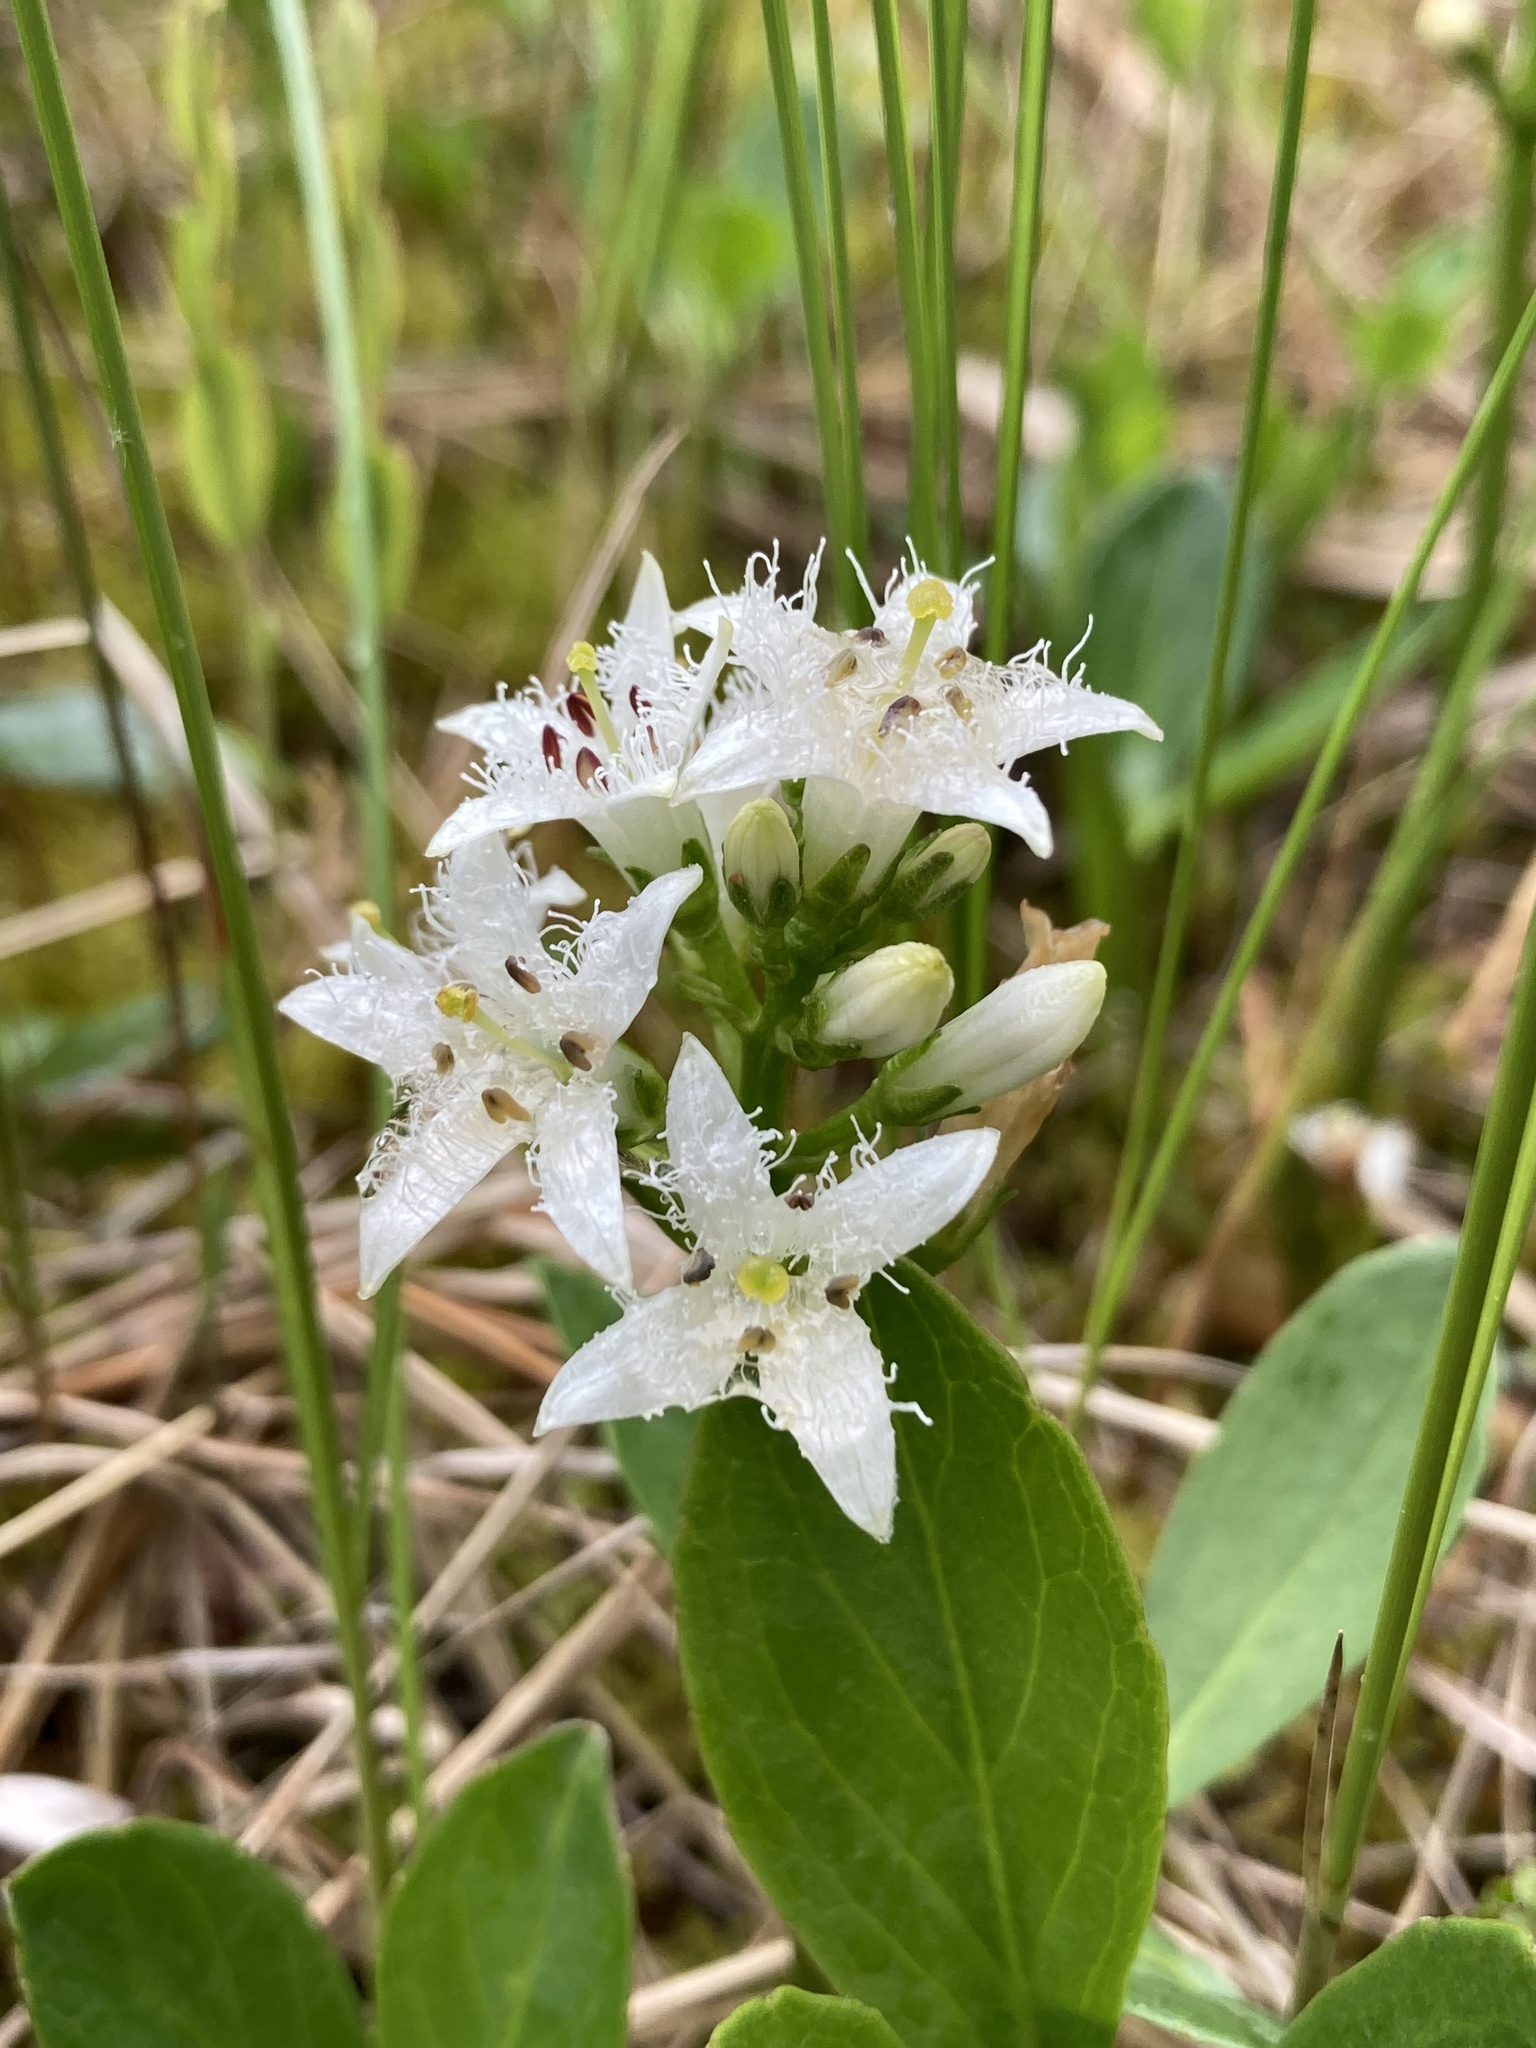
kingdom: Plantae
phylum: Tracheophyta
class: Magnoliopsida
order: Asterales
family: Menyanthaceae
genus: Menyanthes
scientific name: Menyanthes trifoliata
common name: Bogbean
